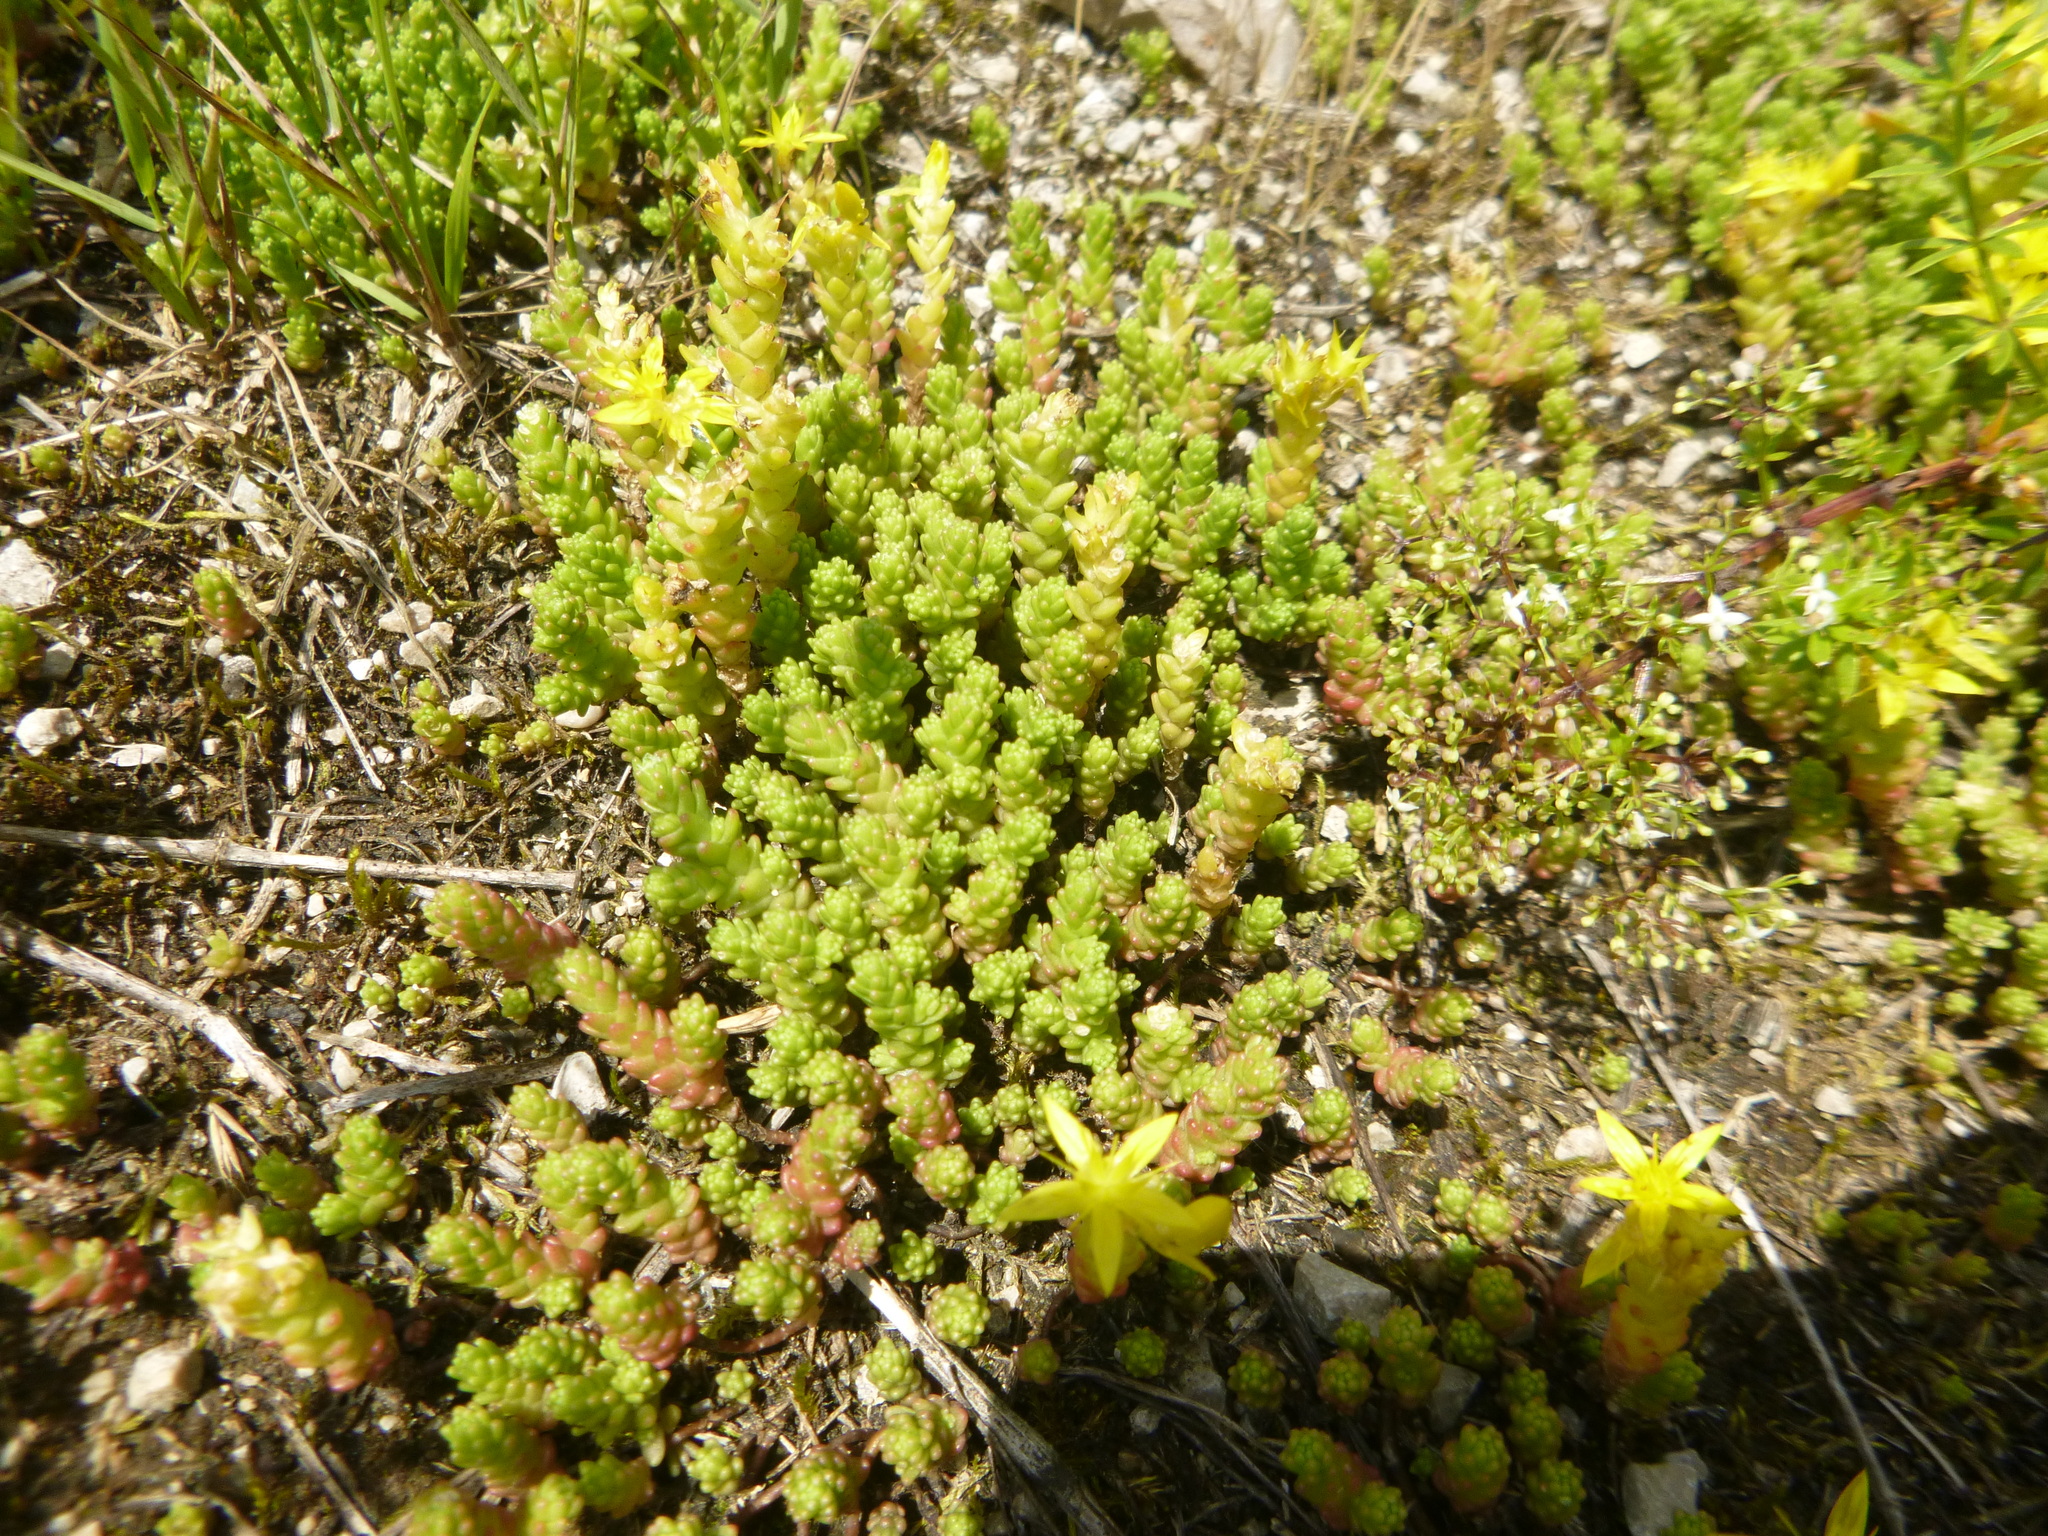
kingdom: Plantae
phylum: Tracheophyta
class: Magnoliopsida
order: Saxifragales
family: Crassulaceae
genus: Sedum
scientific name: Sedum acre
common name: Biting stonecrop
